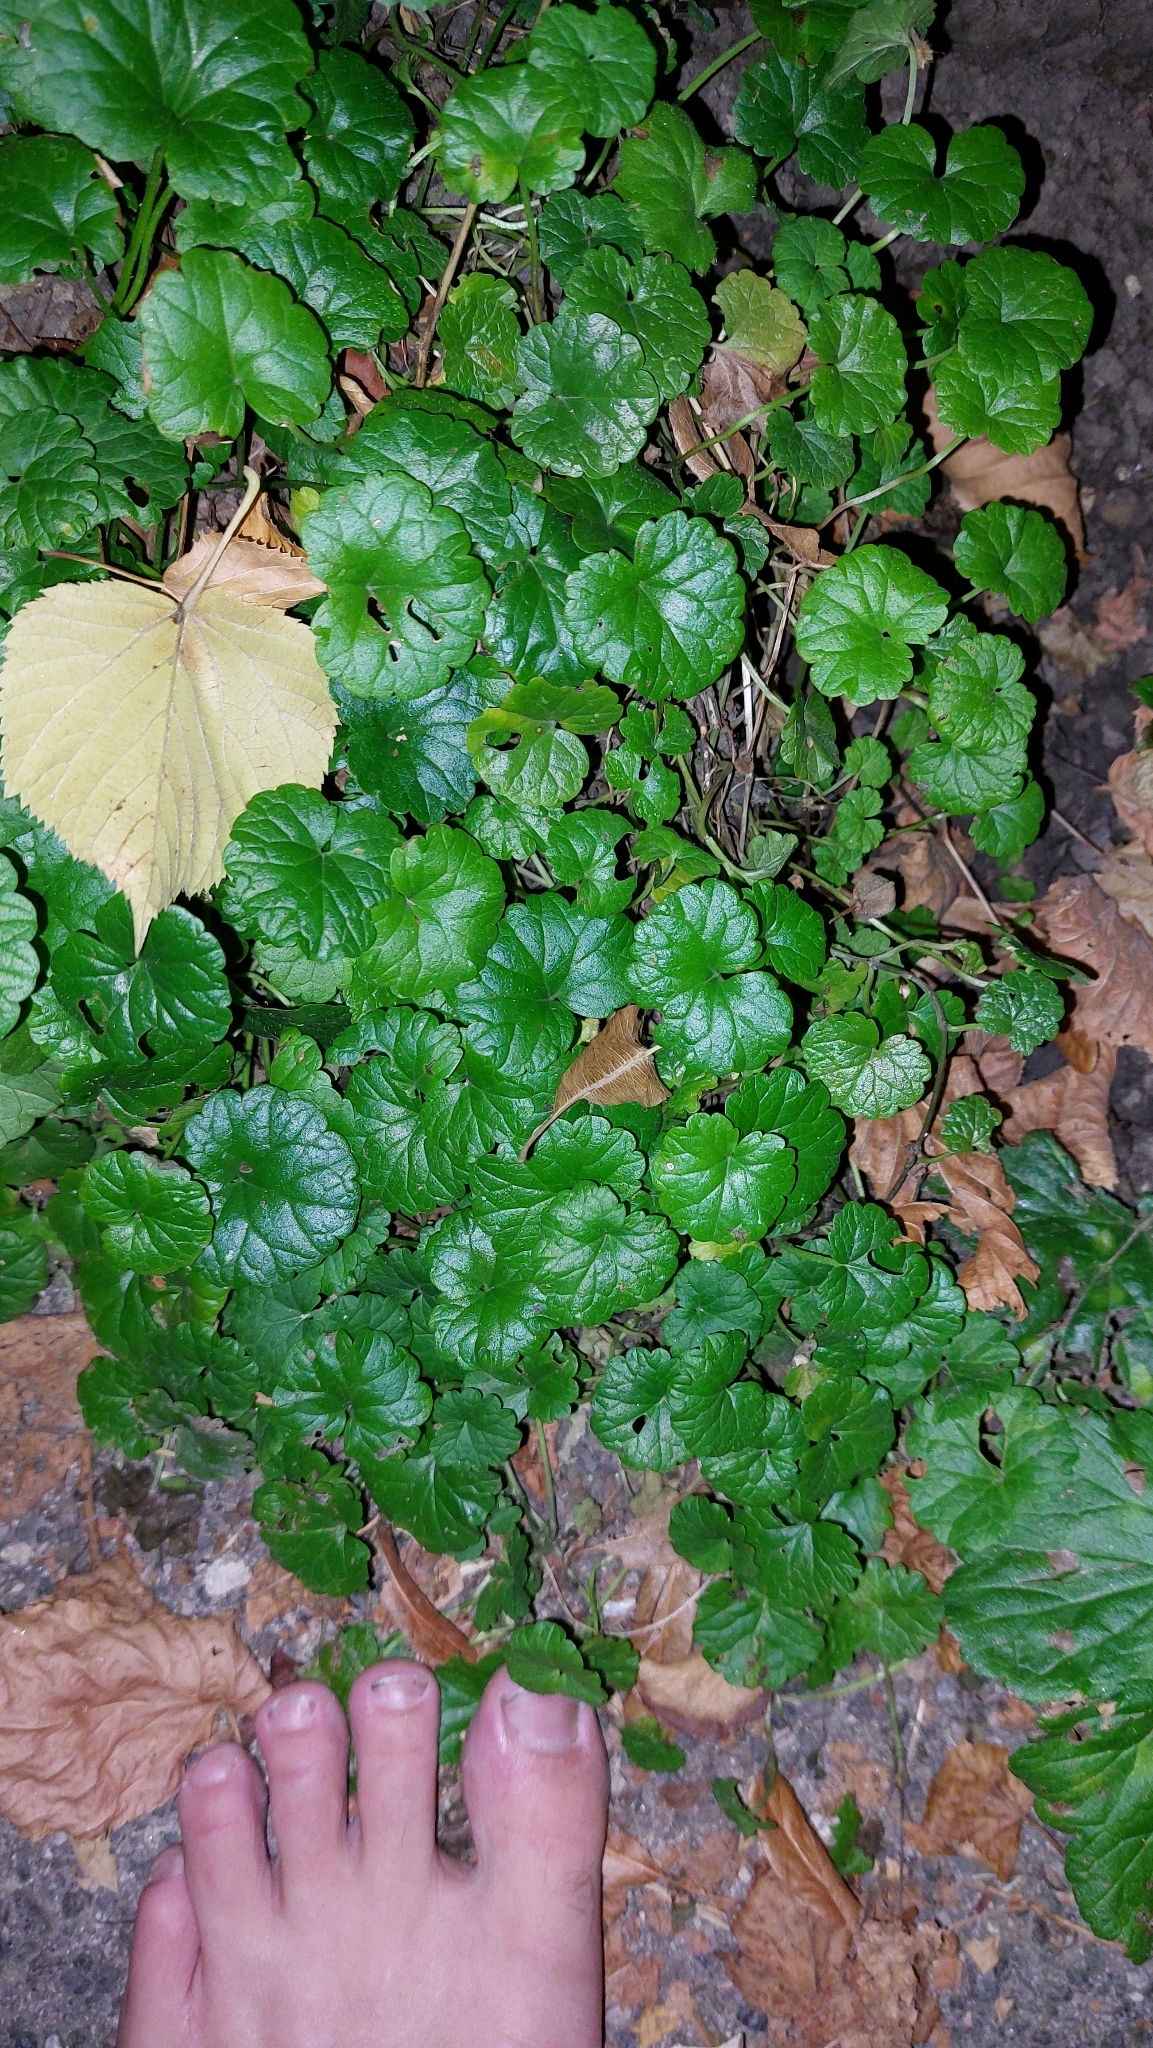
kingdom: Plantae
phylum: Tracheophyta
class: Magnoliopsida
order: Lamiales
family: Lamiaceae
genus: Glechoma
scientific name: Glechoma hederacea
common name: Ground ivy
